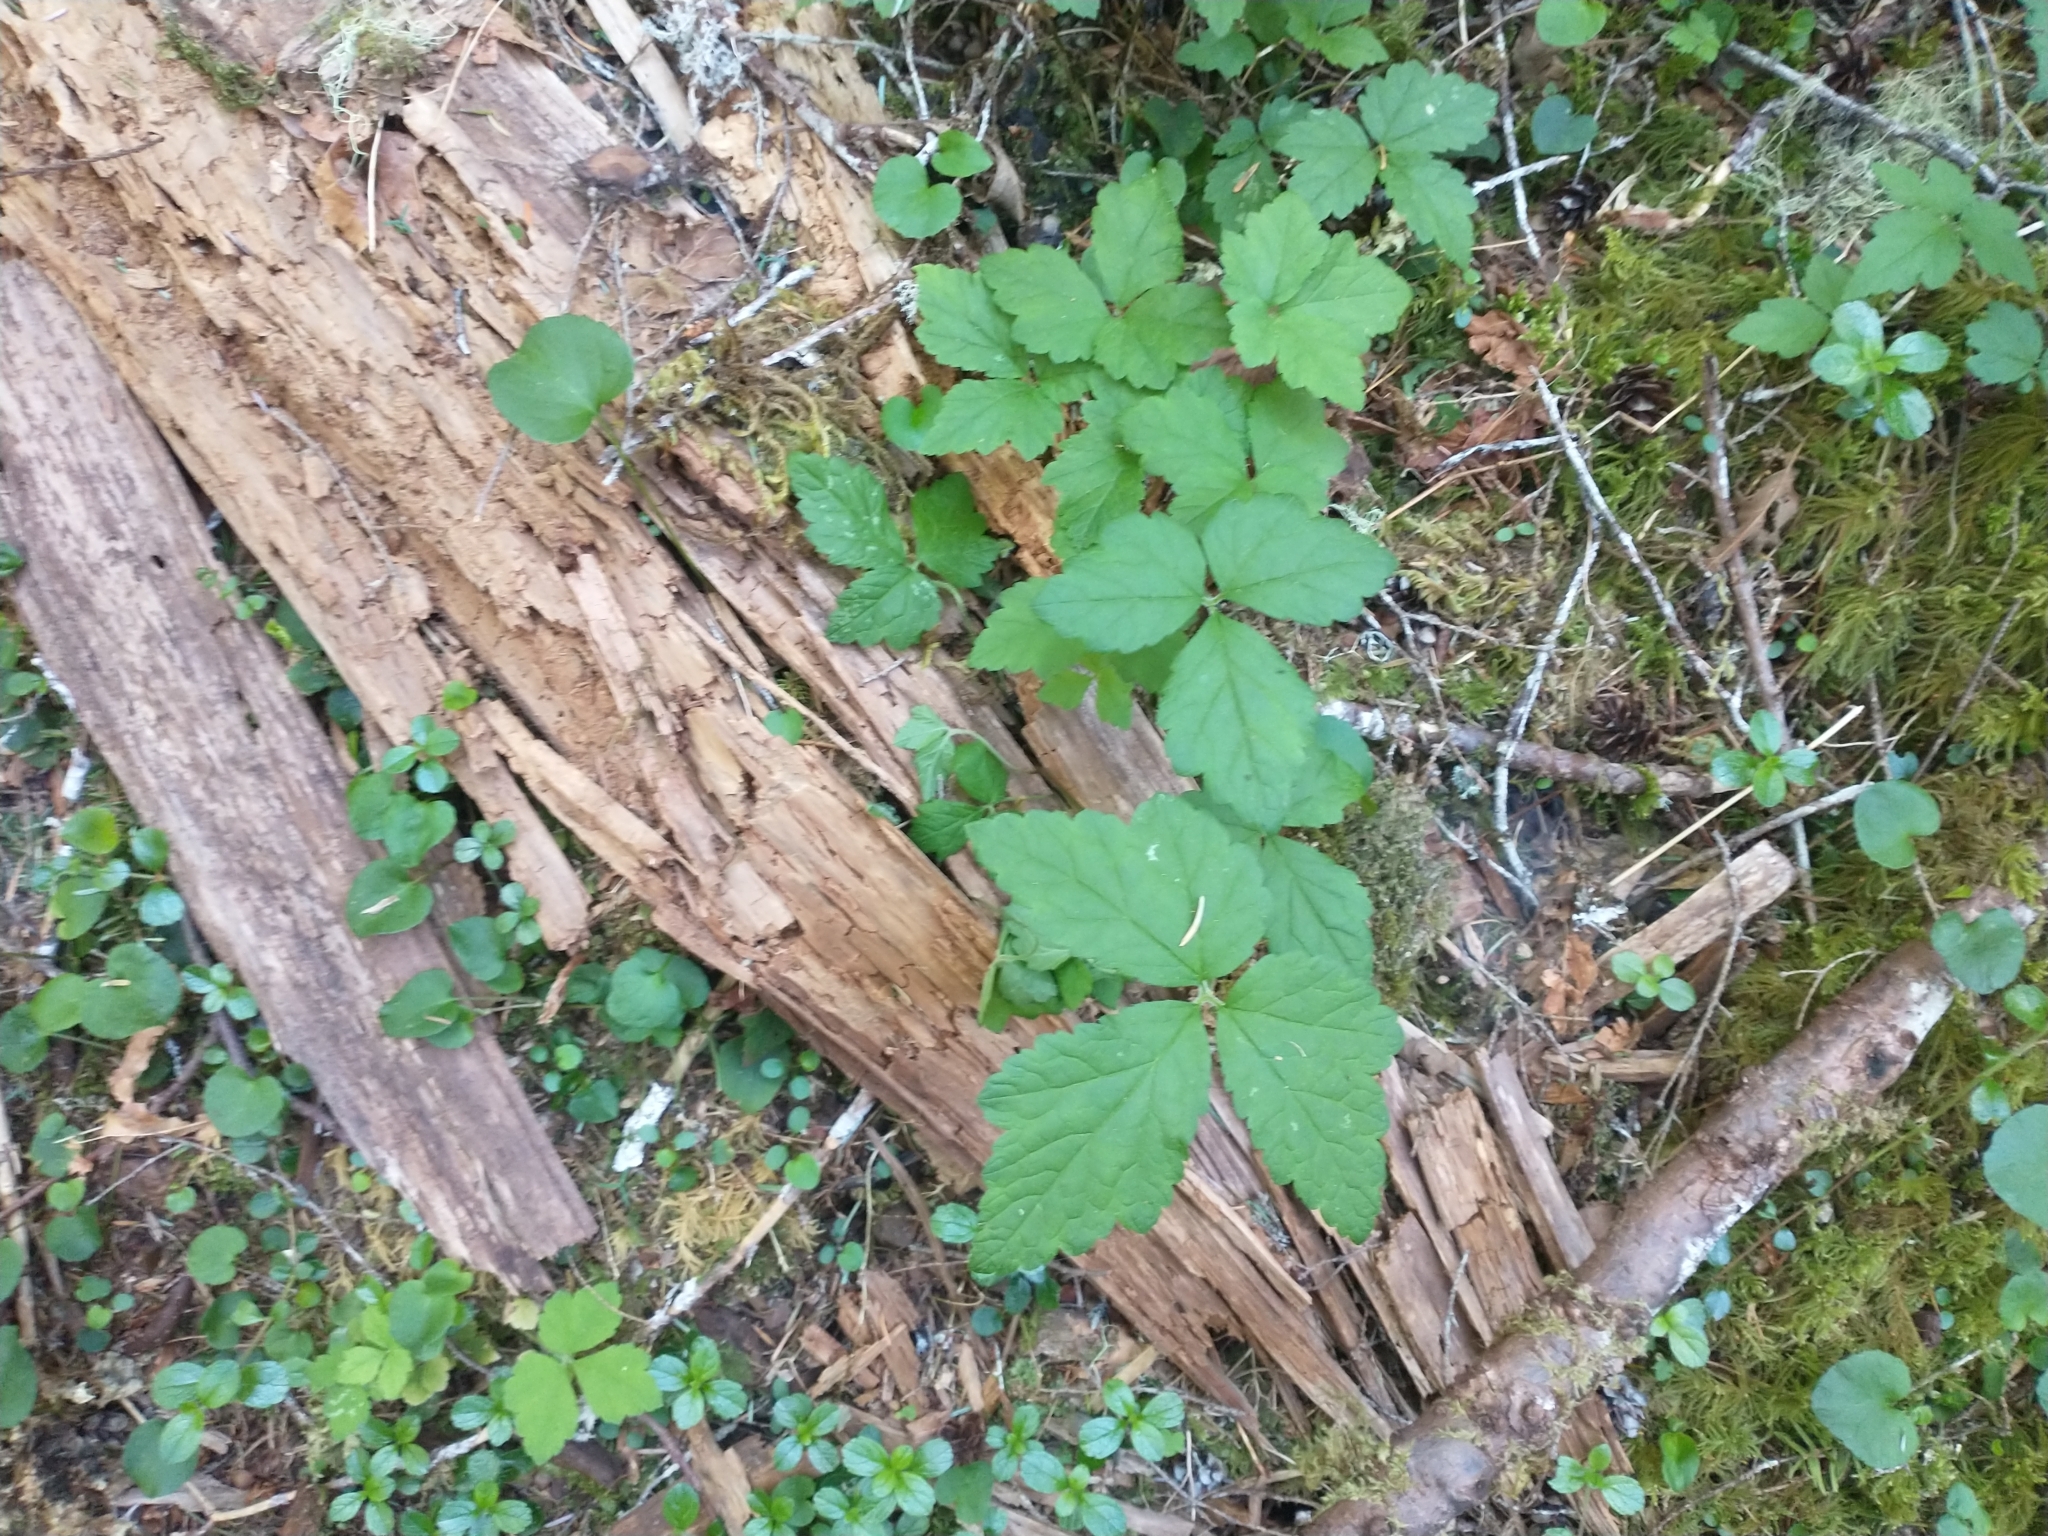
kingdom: Plantae
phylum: Tracheophyta
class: Magnoliopsida
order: Saxifragales
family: Saxifragaceae
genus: Tiarella
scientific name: Tiarella trifoliata
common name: Sugar-scoop
